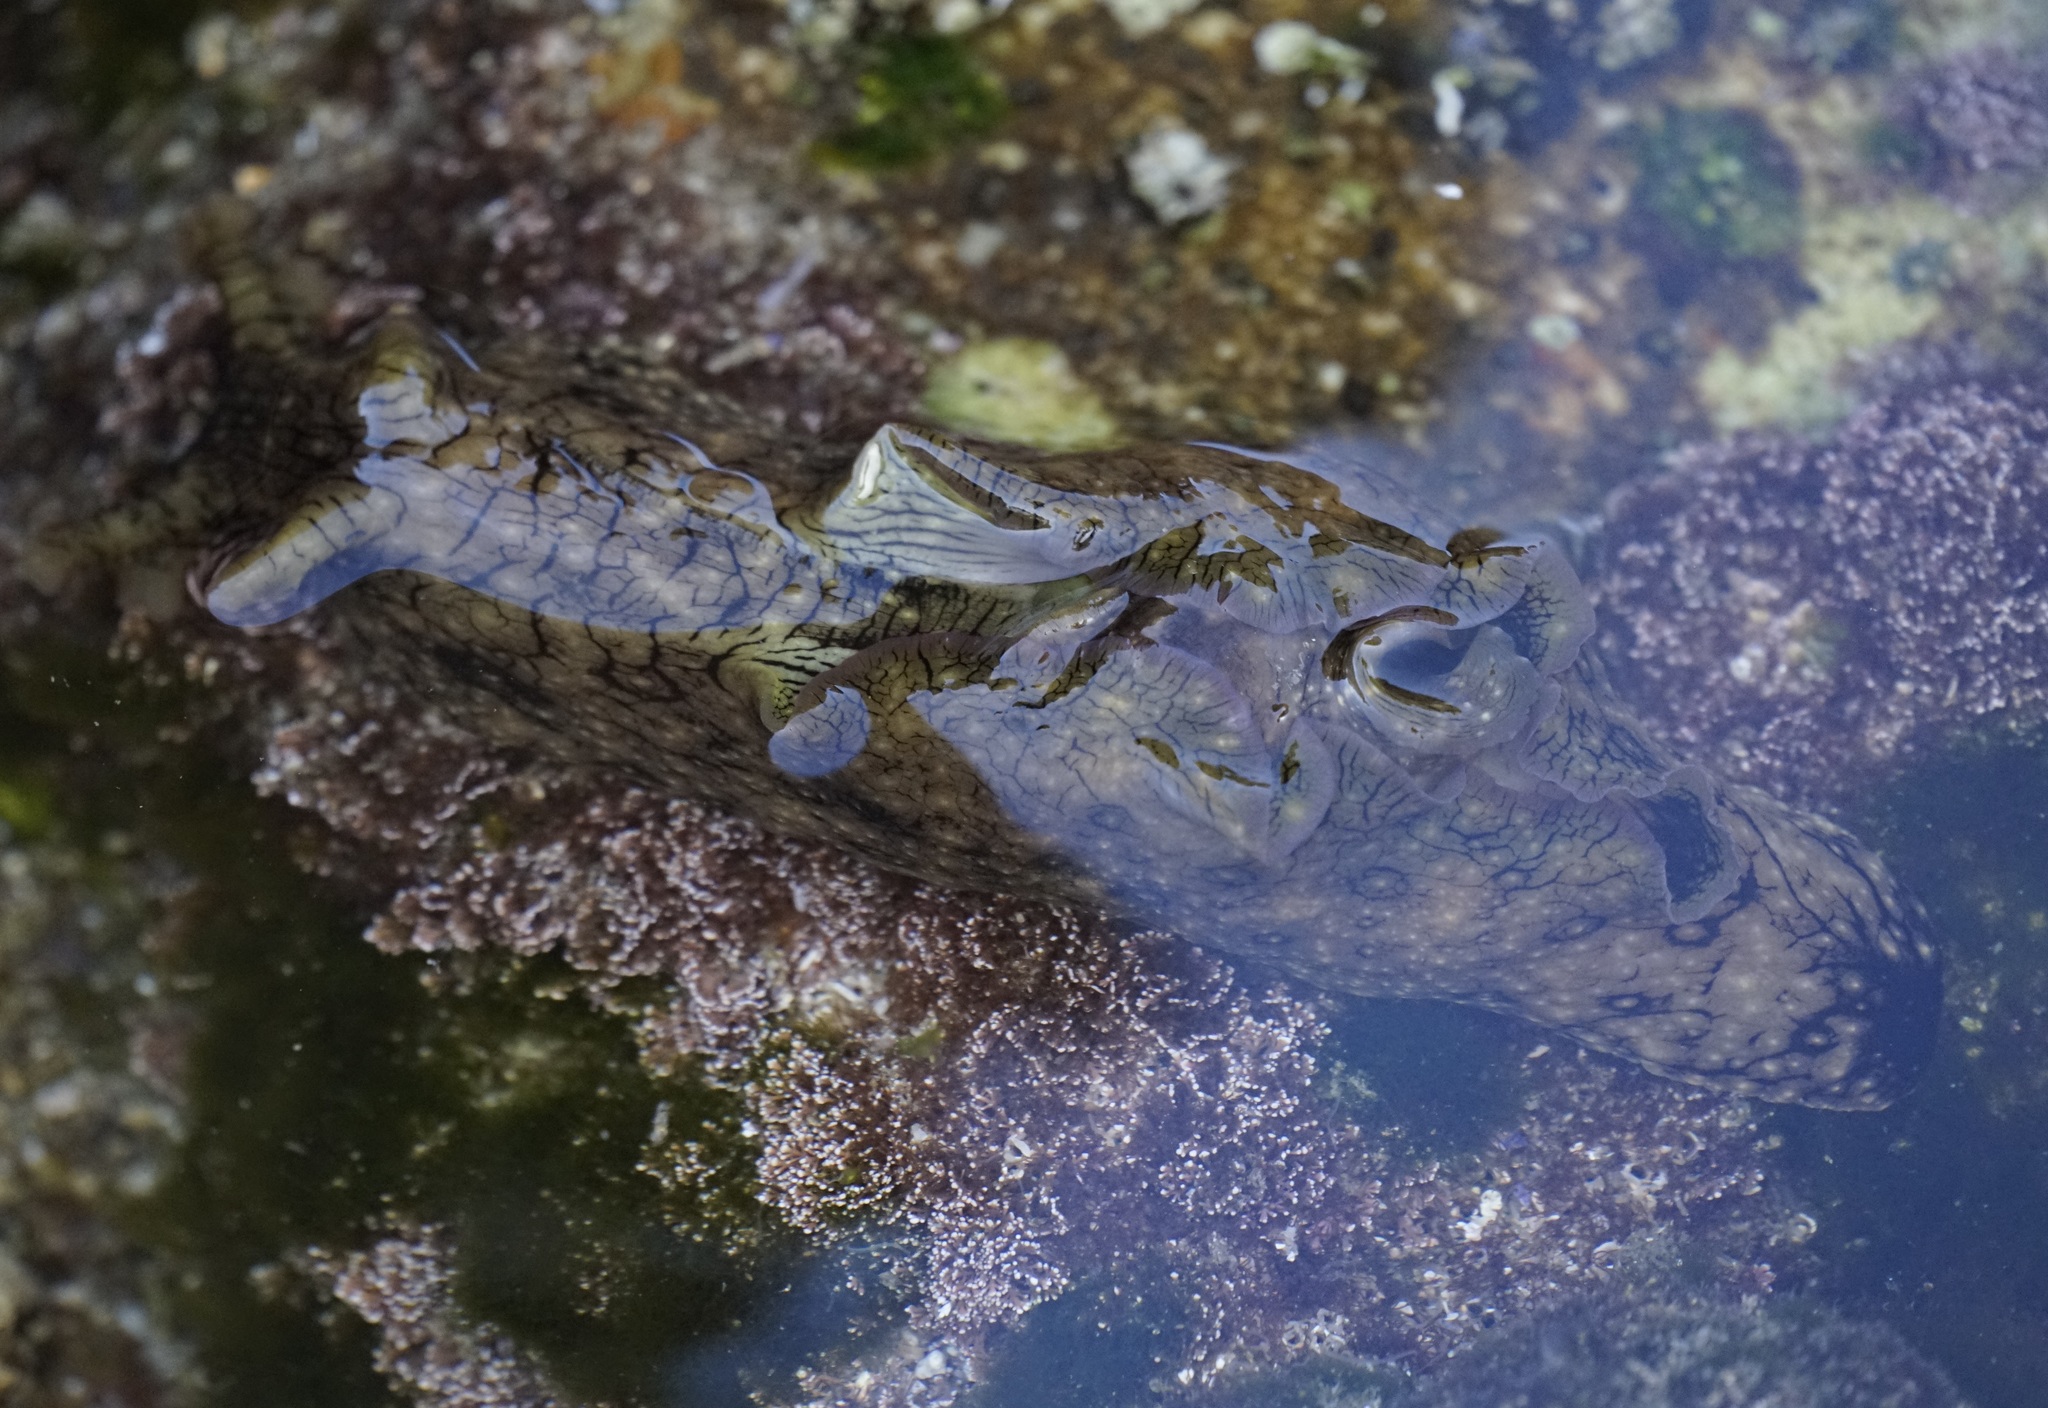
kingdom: Animalia
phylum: Mollusca
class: Gastropoda
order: Aplysiida
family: Aplysiidae
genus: Aplysia
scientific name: Aplysia argus
